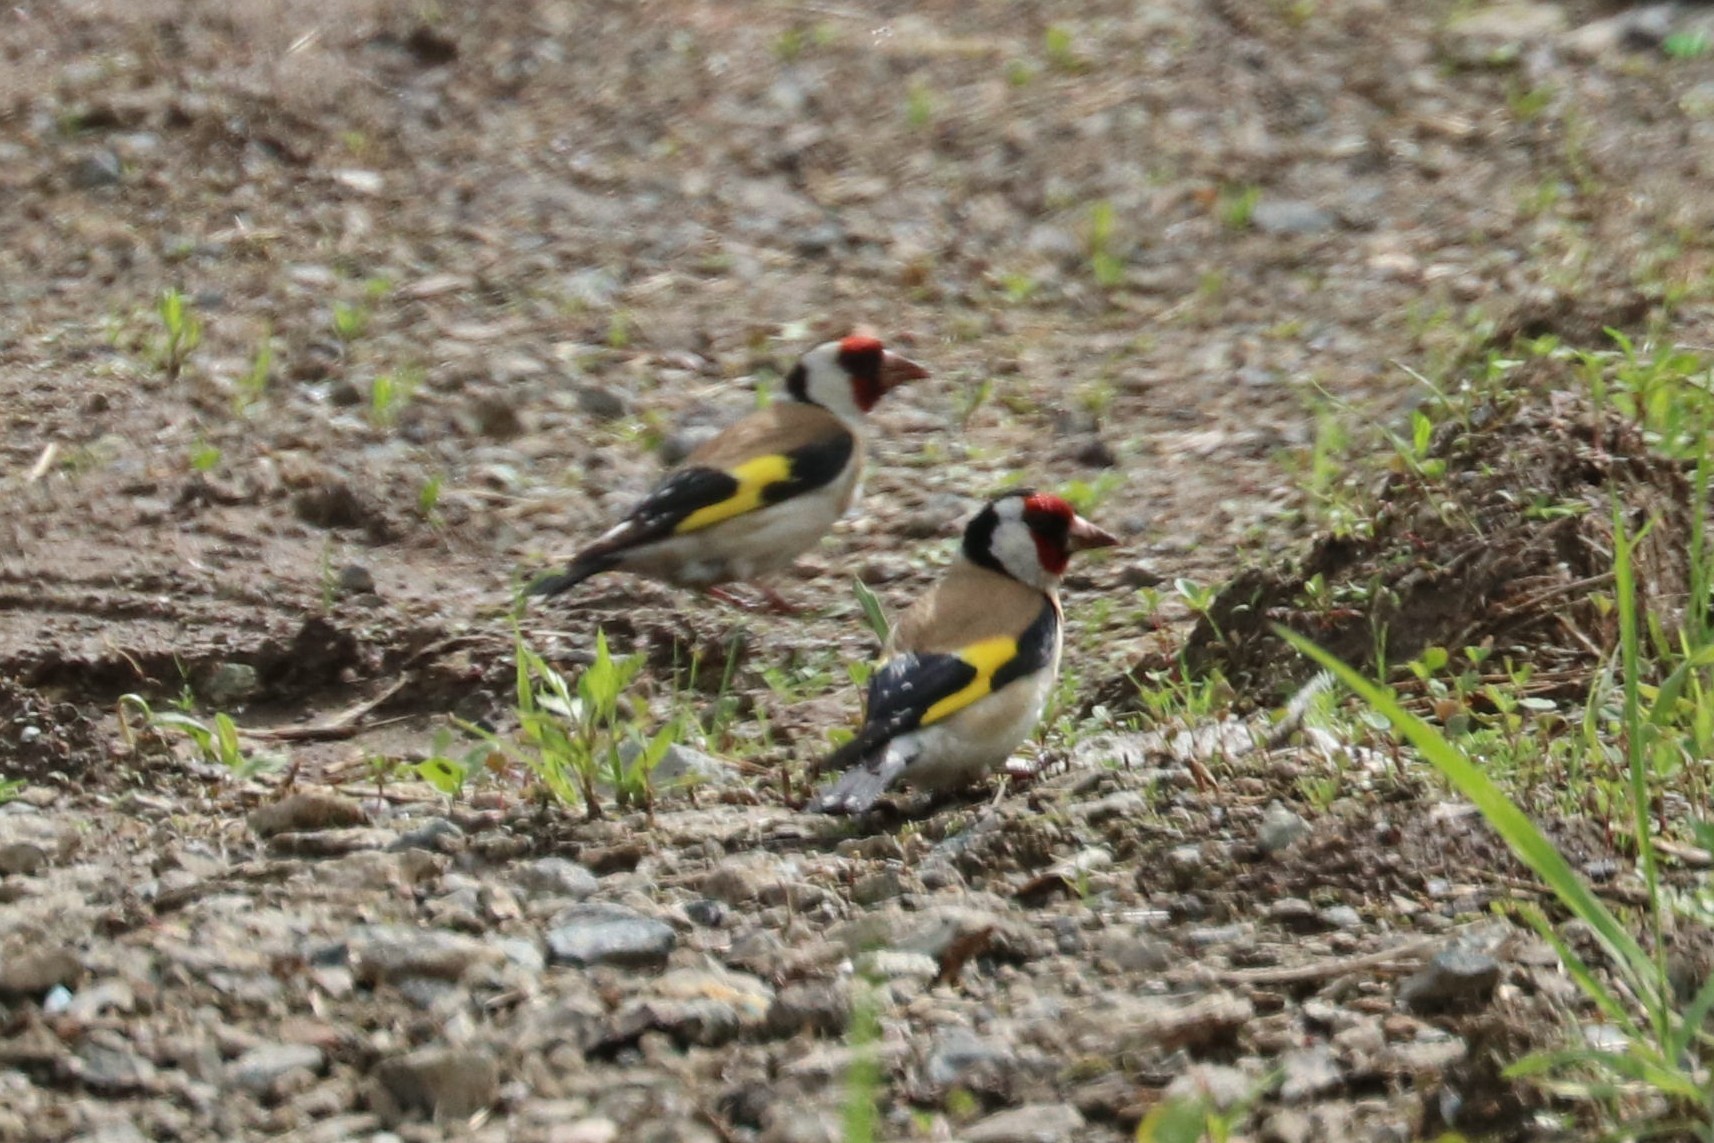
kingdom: Animalia
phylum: Chordata
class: Aves
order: Passeriformes
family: Fringillidae
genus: Carduelis
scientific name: Carduelis carduelis
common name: European goldfinch
